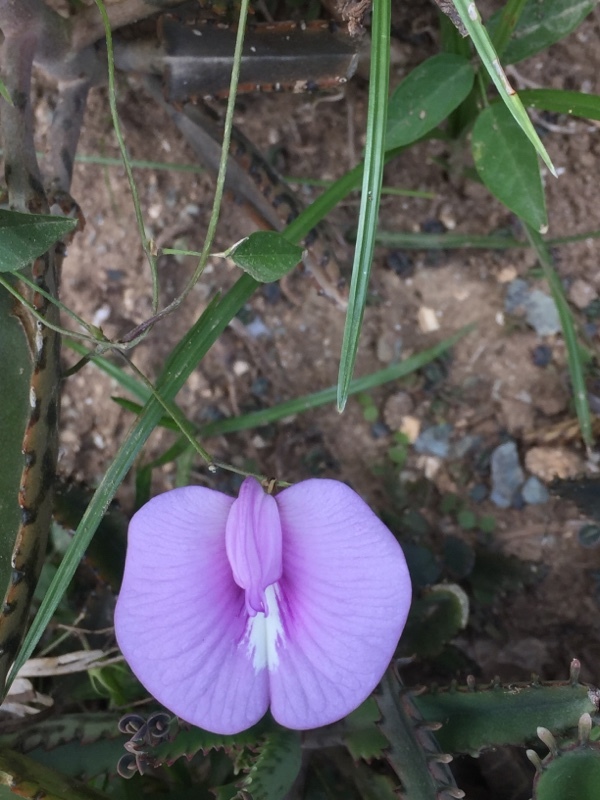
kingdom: Plantae
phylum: Tracheophyta
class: Magnoliopsida
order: Fabales
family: Fabaceae
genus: Centrosema
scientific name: Centrosema virginianum
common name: Butterfly-pea
